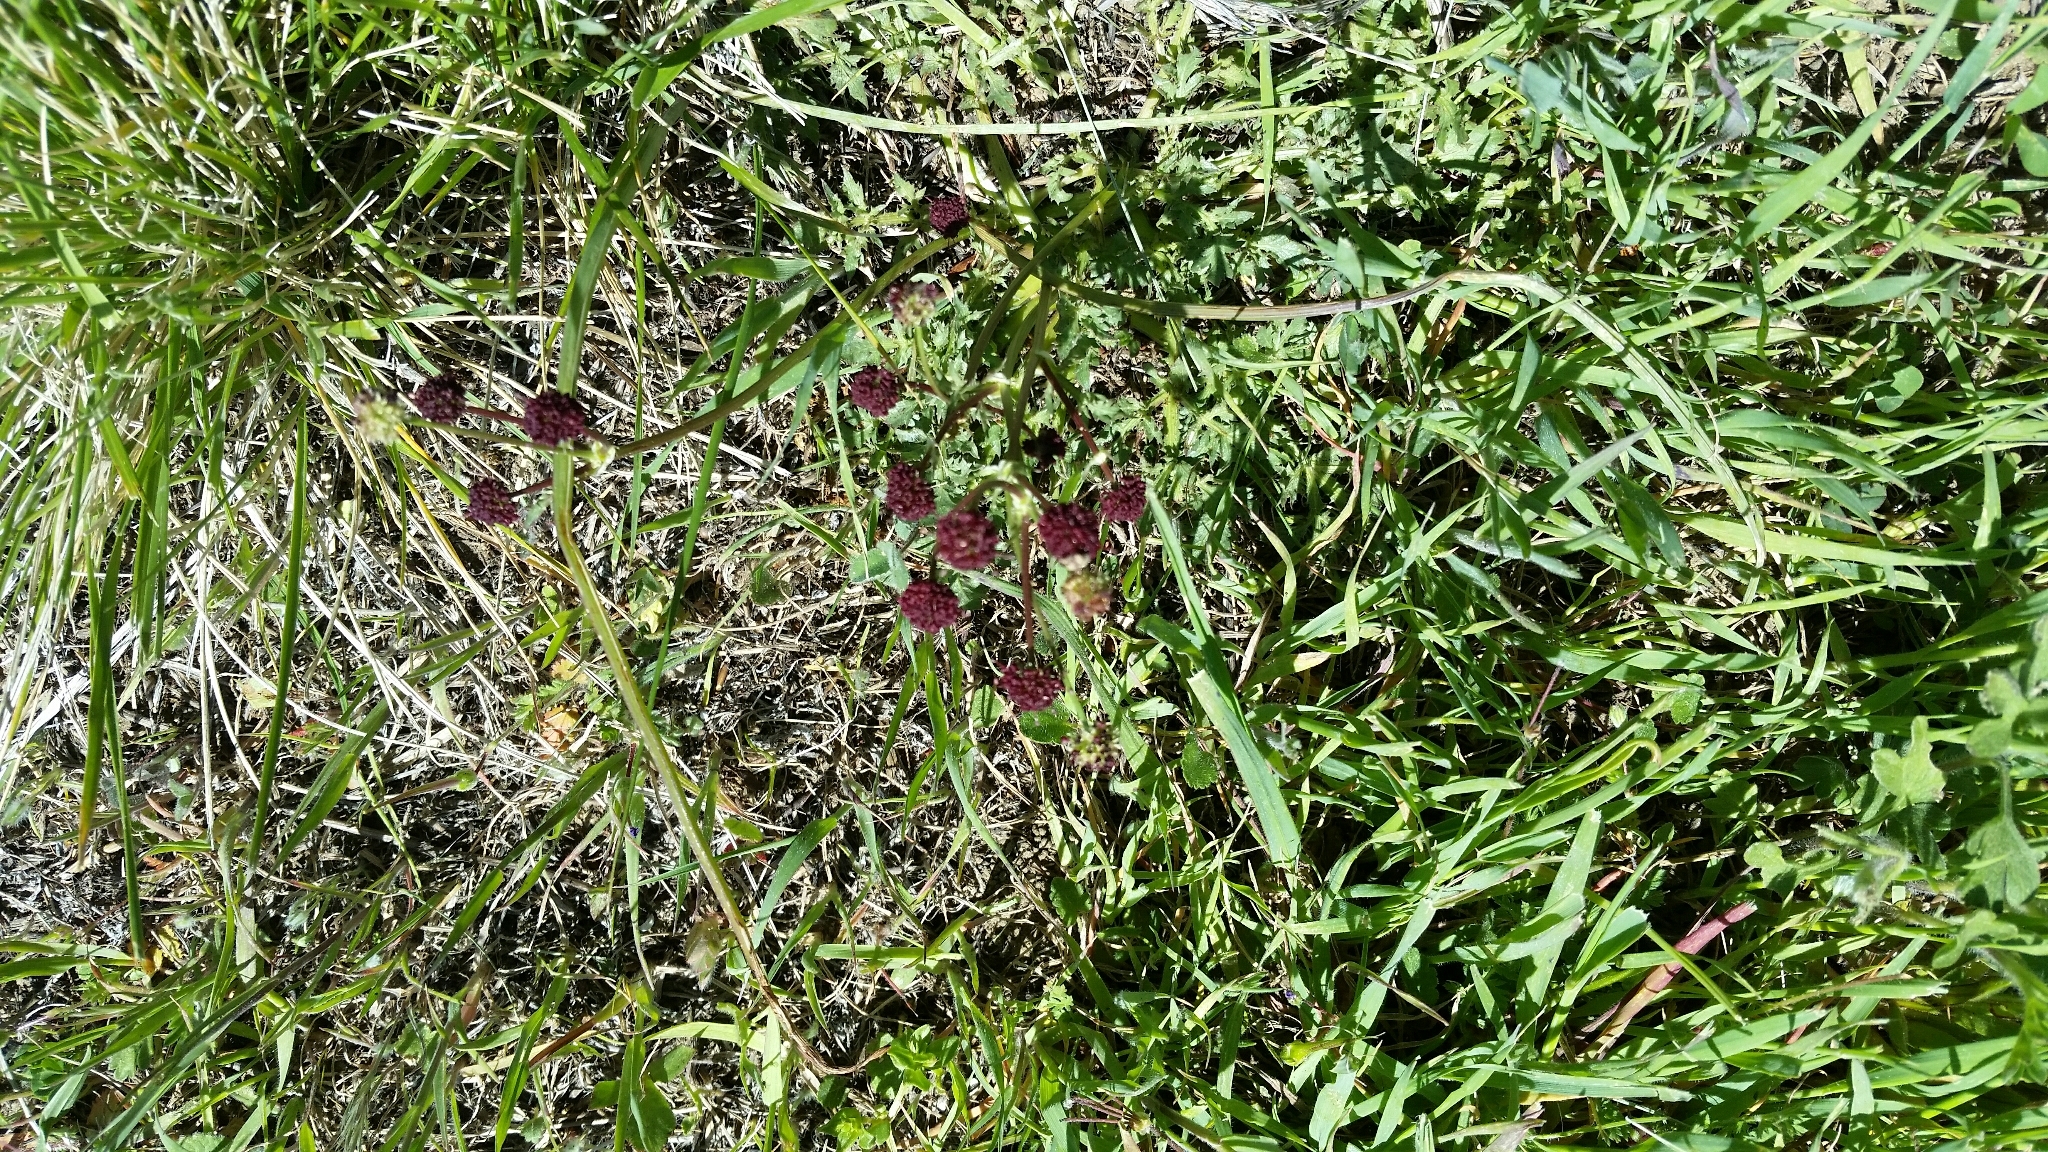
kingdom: Plantae
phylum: Tracheophyta
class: Magnoliopsida
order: Apiales
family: Apiaceae
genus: Sanicula
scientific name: Sanicula bipinnatifida
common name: Shoe-buttons
